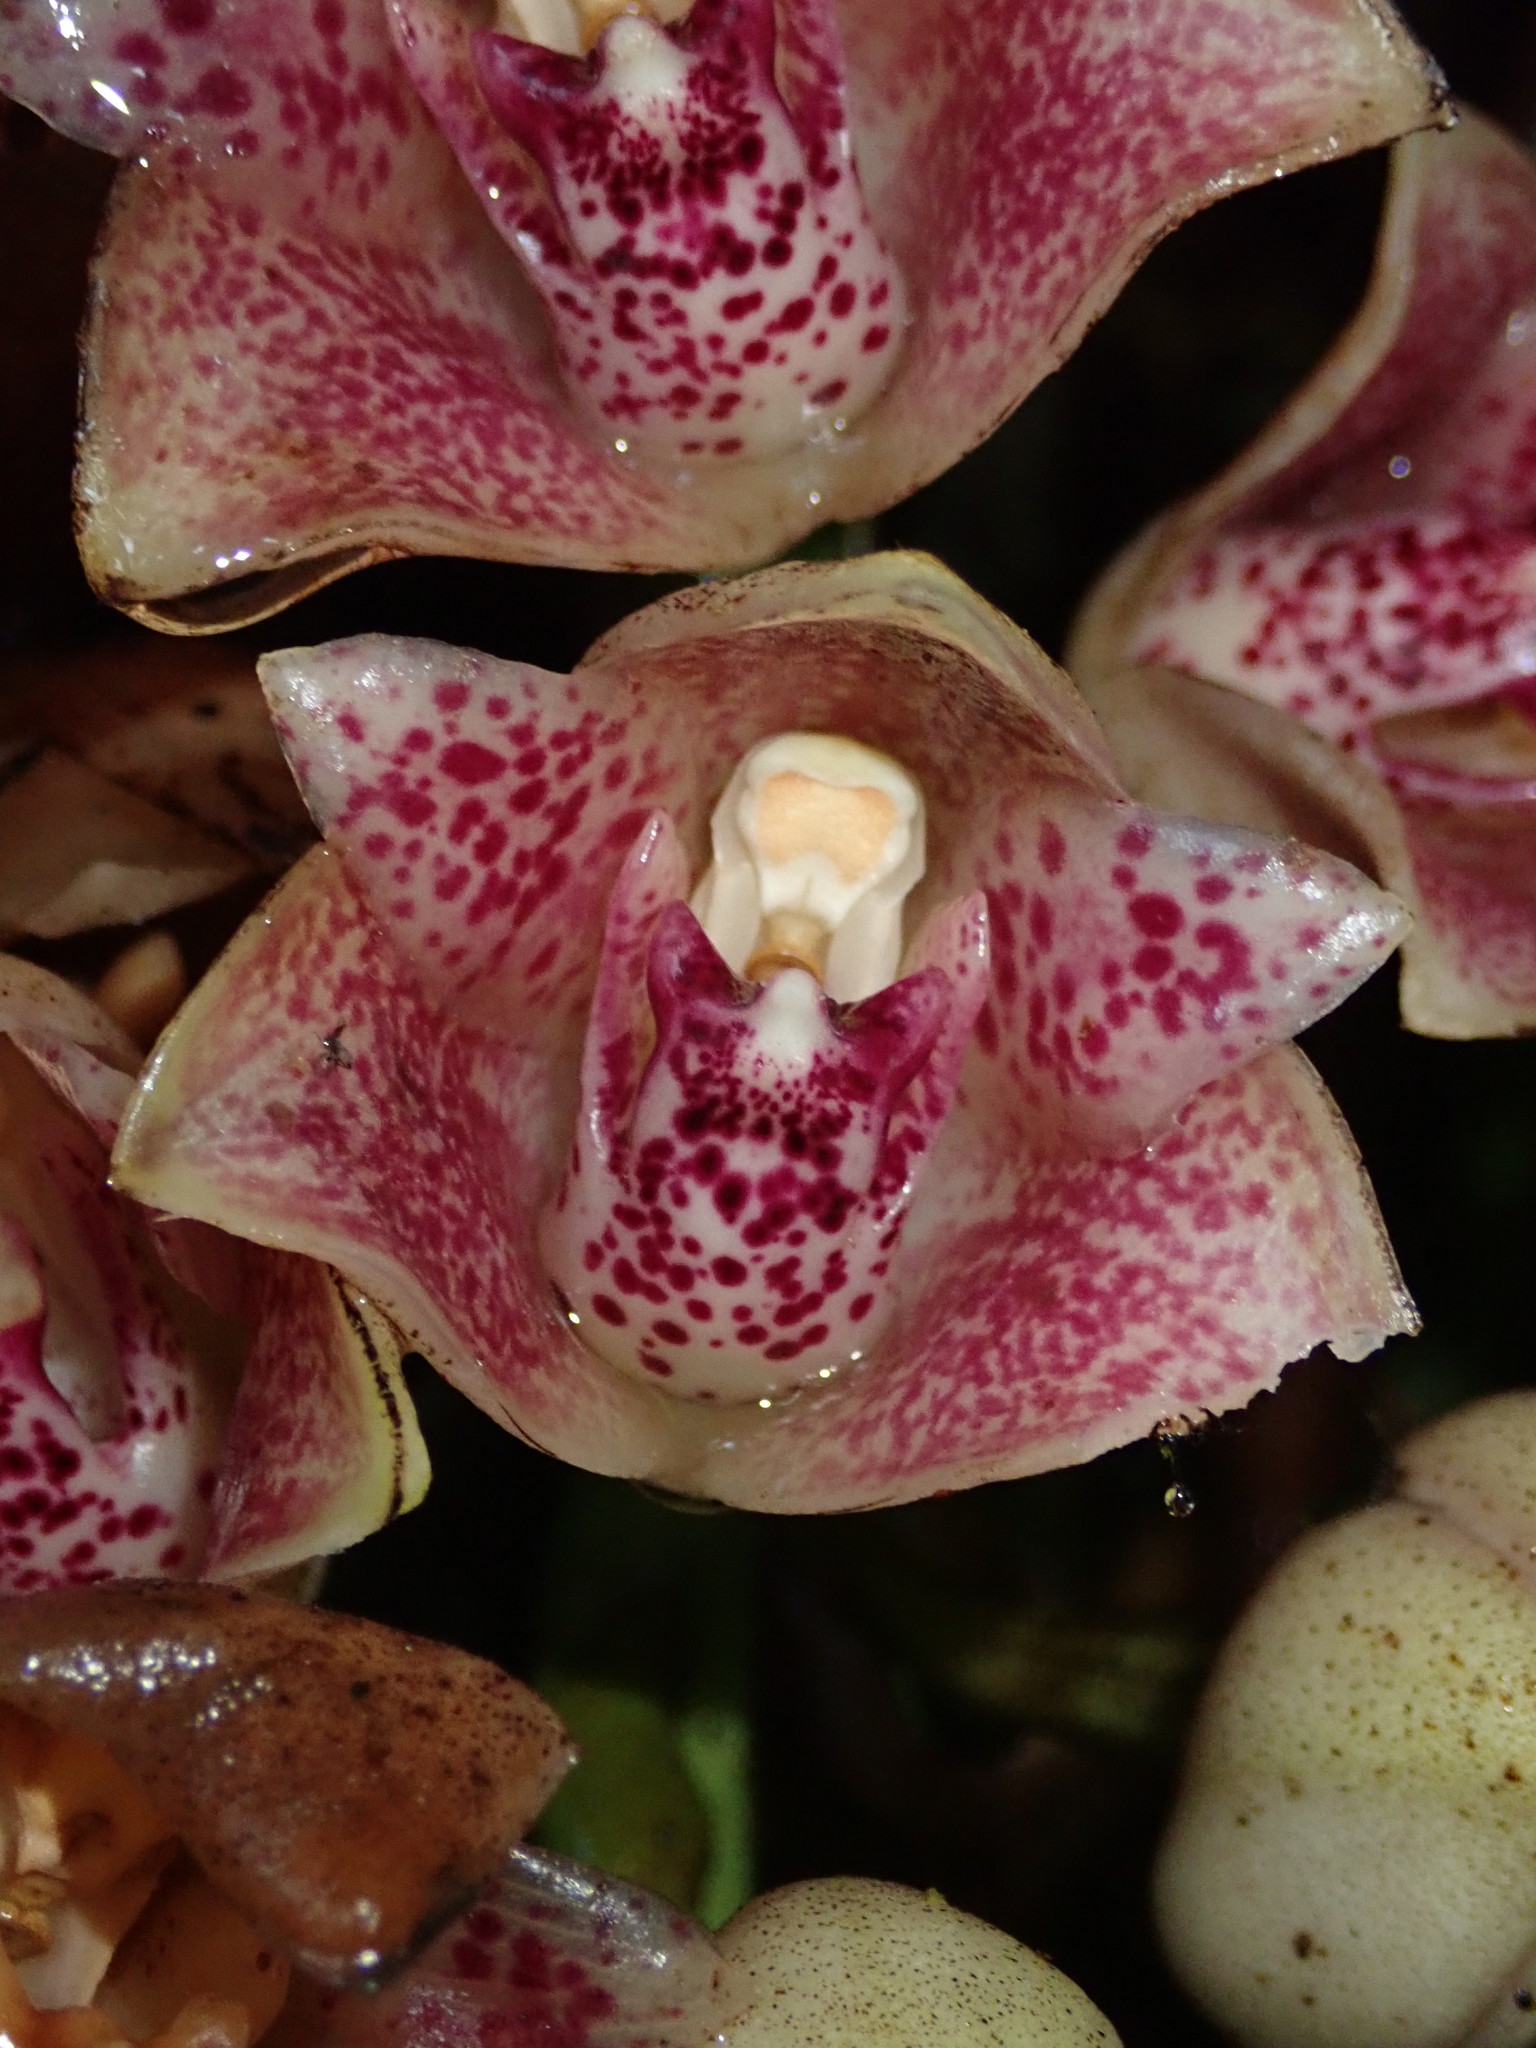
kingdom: Plantae
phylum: Tracheophyta
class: Liliopsida
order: Asparagales
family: Orchidaceae
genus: Lycomormium
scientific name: Lycomormium ecuadorense
